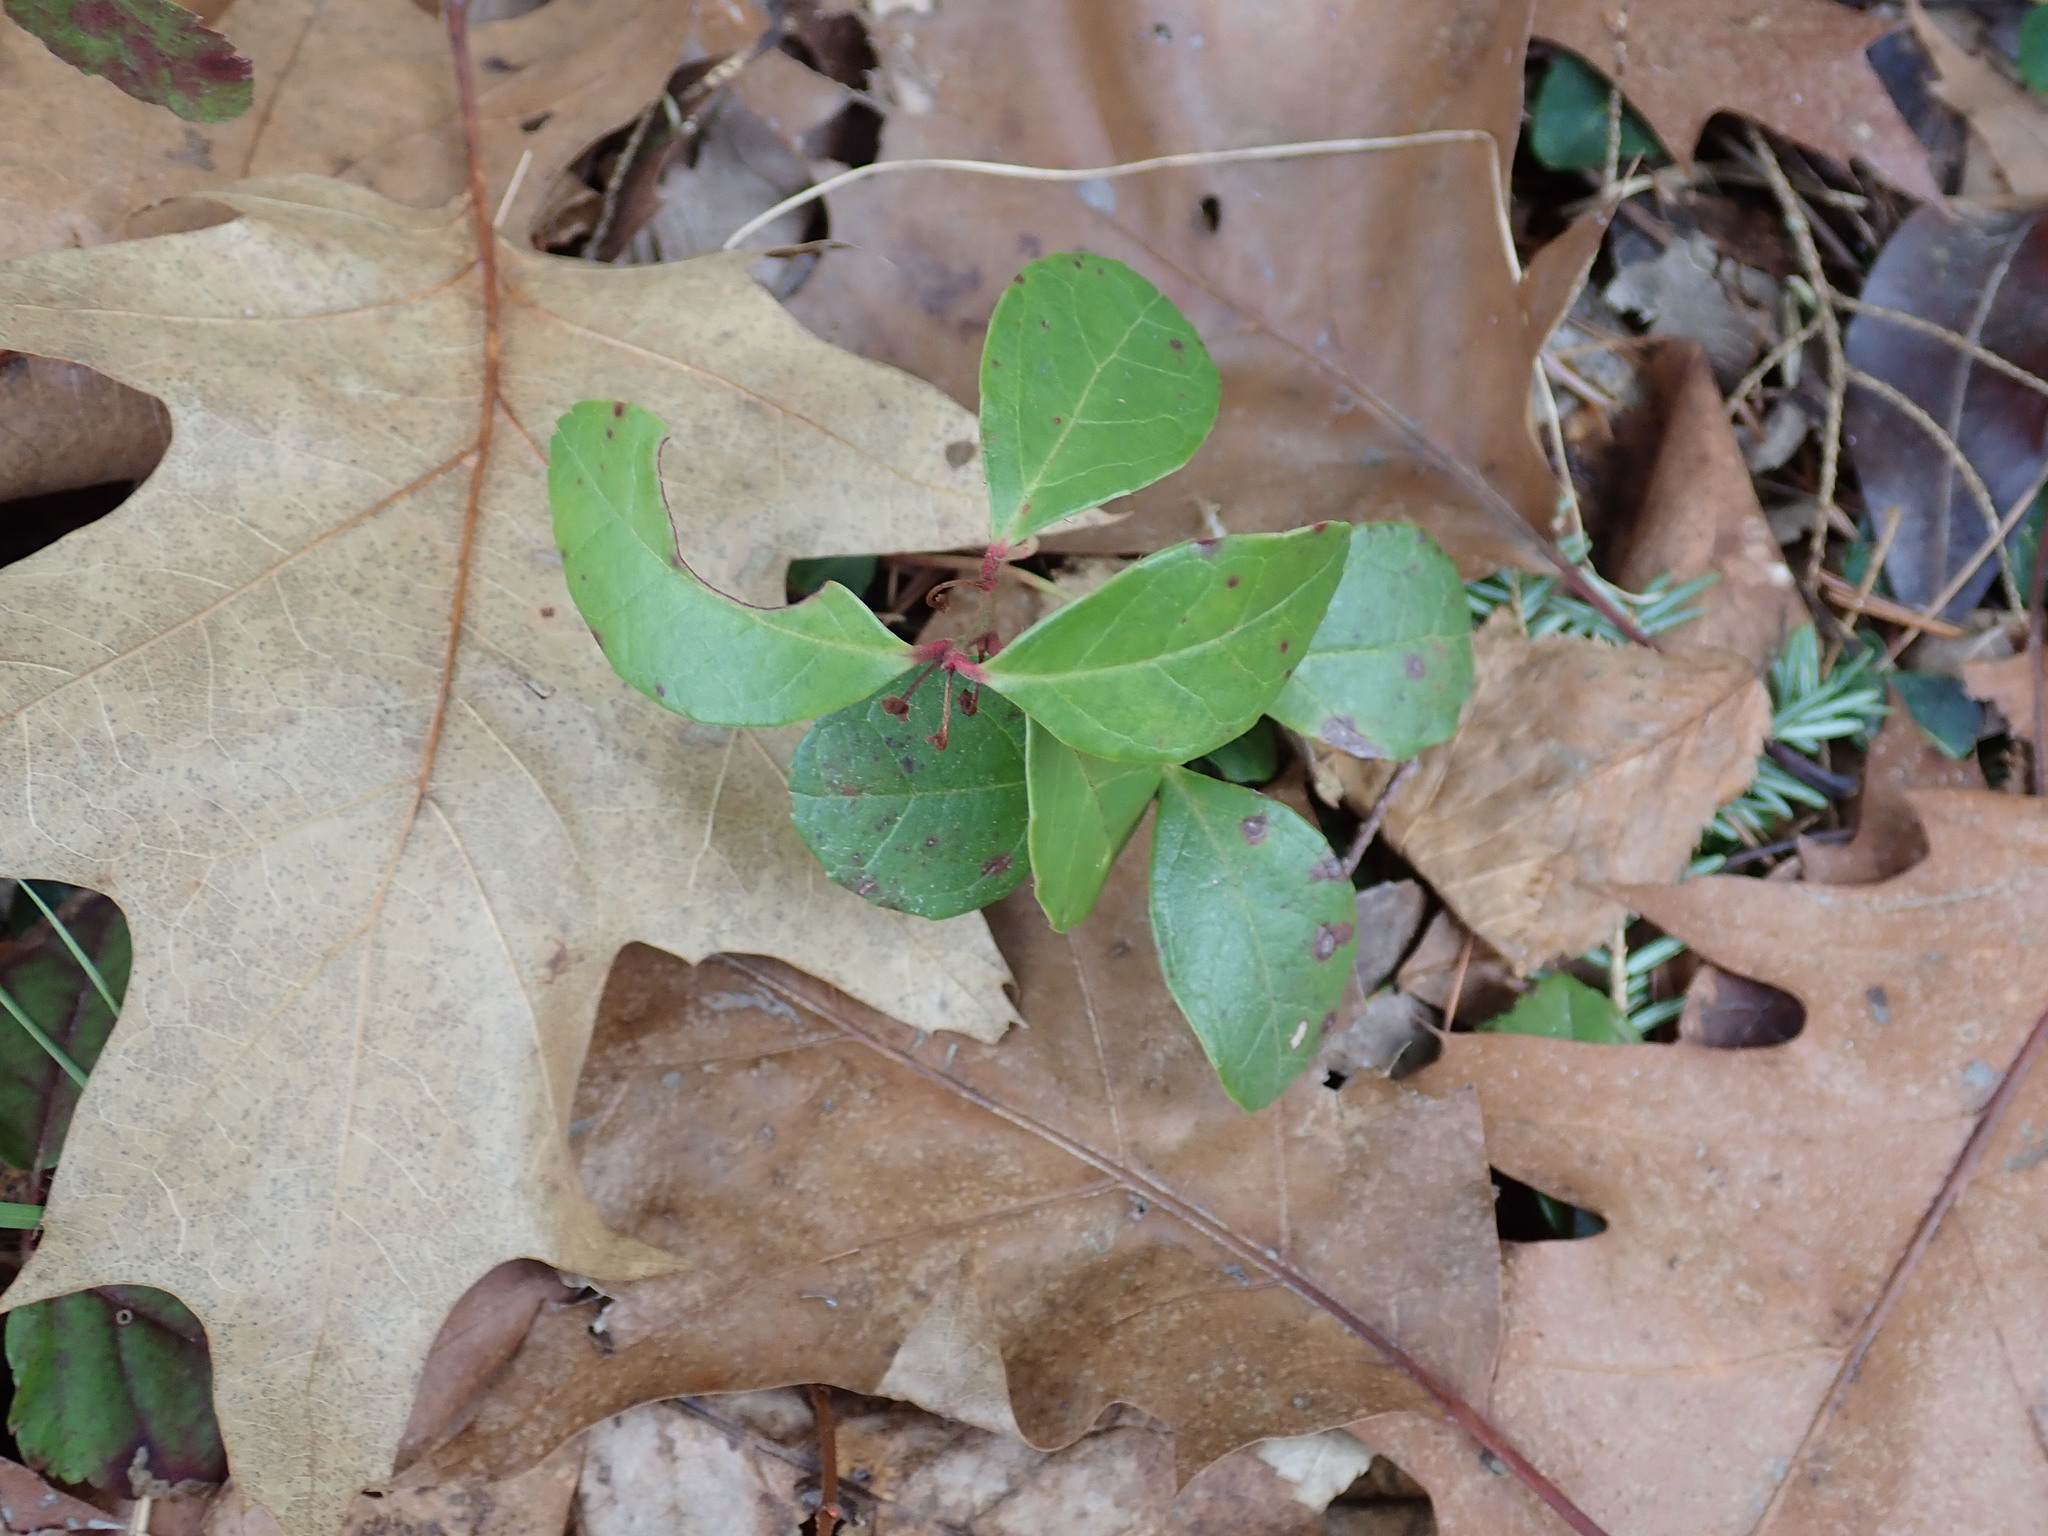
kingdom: Plantae
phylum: Tracheophyta
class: Magnoliopsida
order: Ericales
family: Ericaceae
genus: Gaultheria
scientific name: Gaultheria procumbens
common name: Checkerberry
